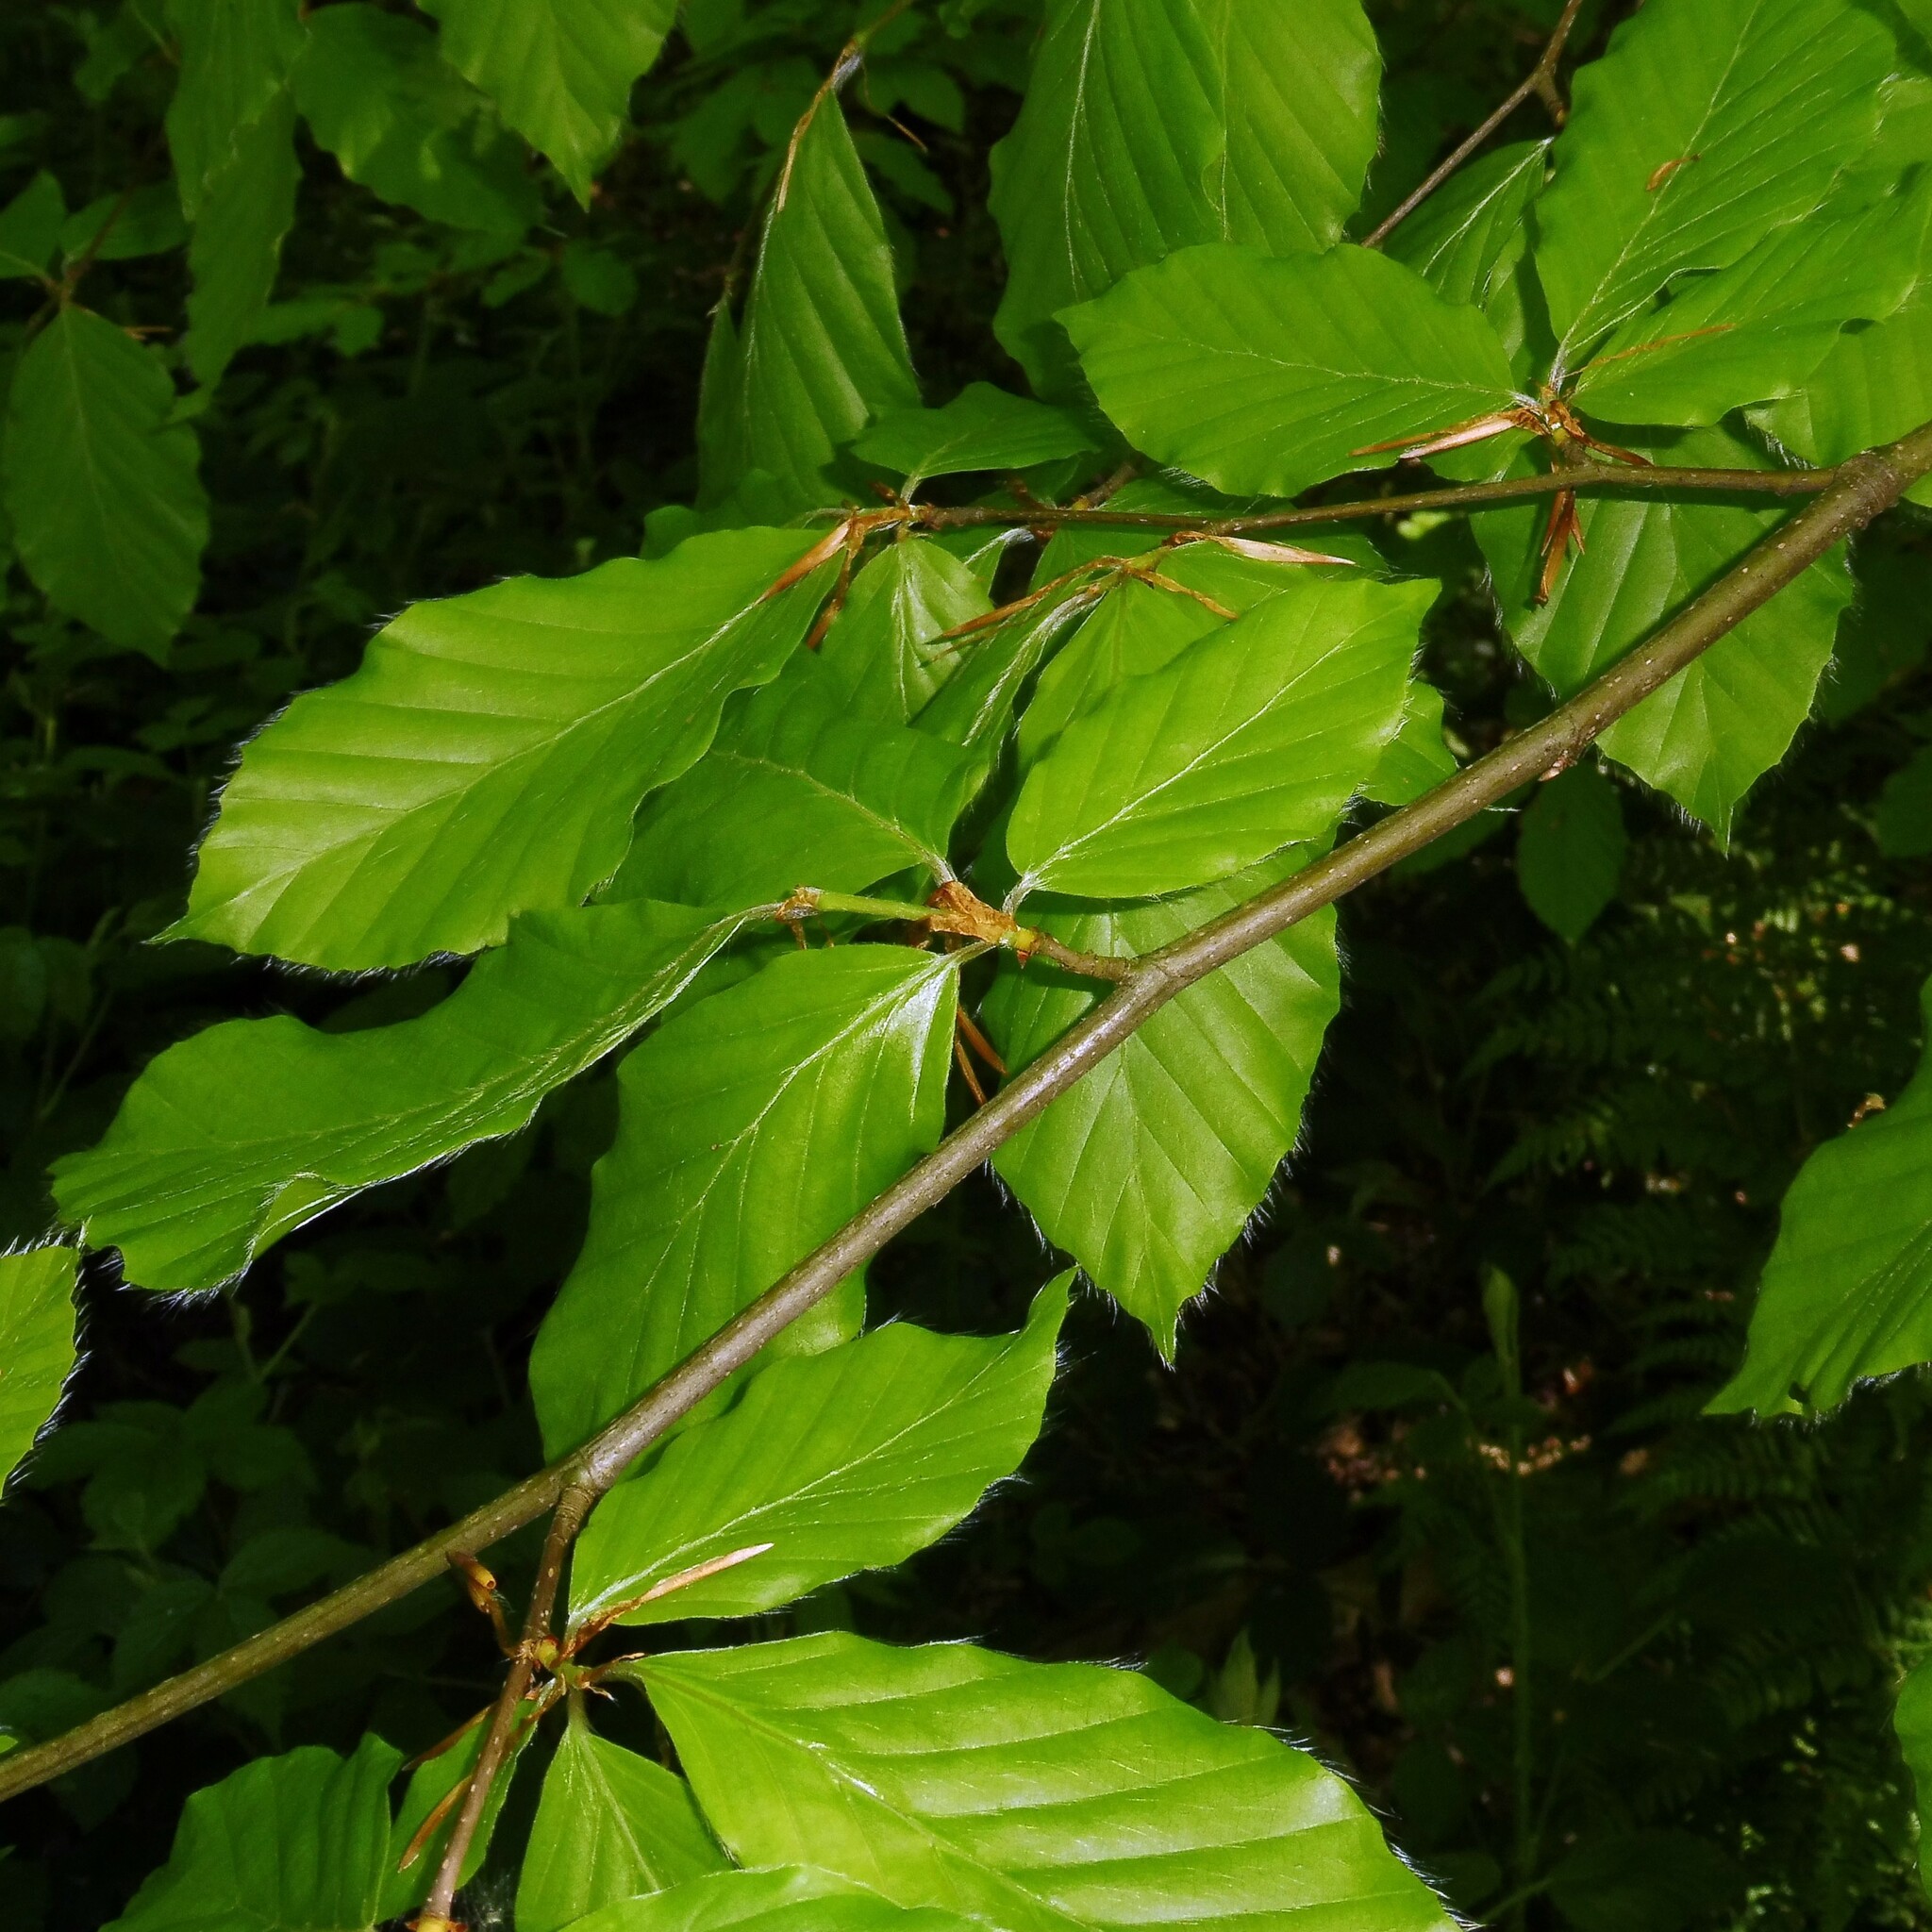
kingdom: Plantae
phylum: Tracheophyta
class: Magnoliopsida
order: Fagales
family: Fagaceae
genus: Fagus
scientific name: Fagus sylvatica
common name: Beech
